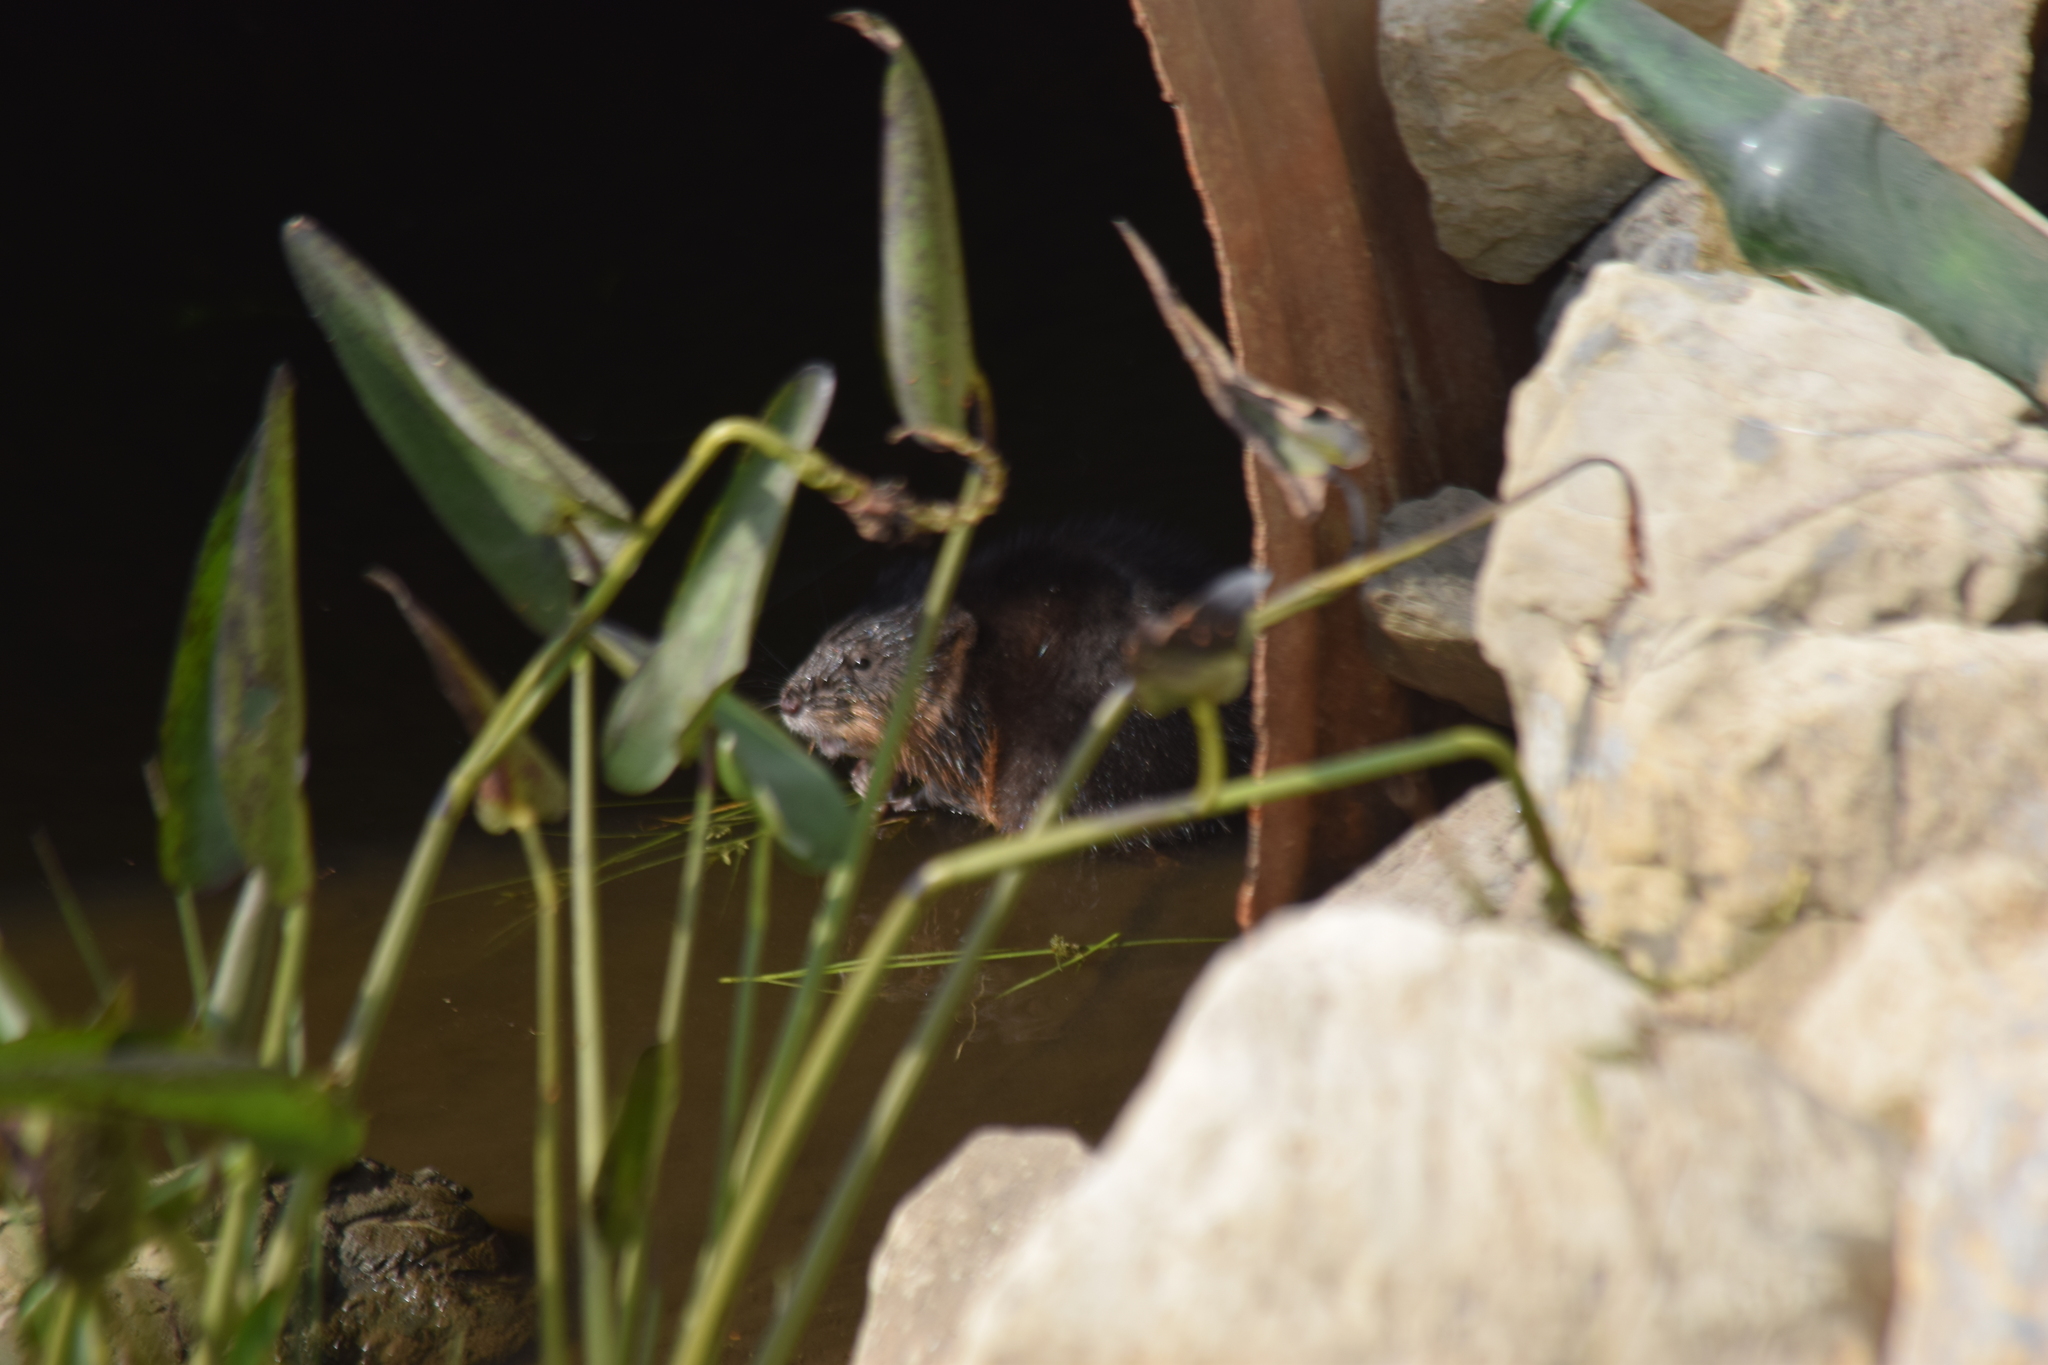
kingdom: Animalia
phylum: Chordata
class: Mammalia
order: Rodentia
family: Cricetidae
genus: Ondatra
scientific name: Ondatra zibethicus
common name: Muskrat
